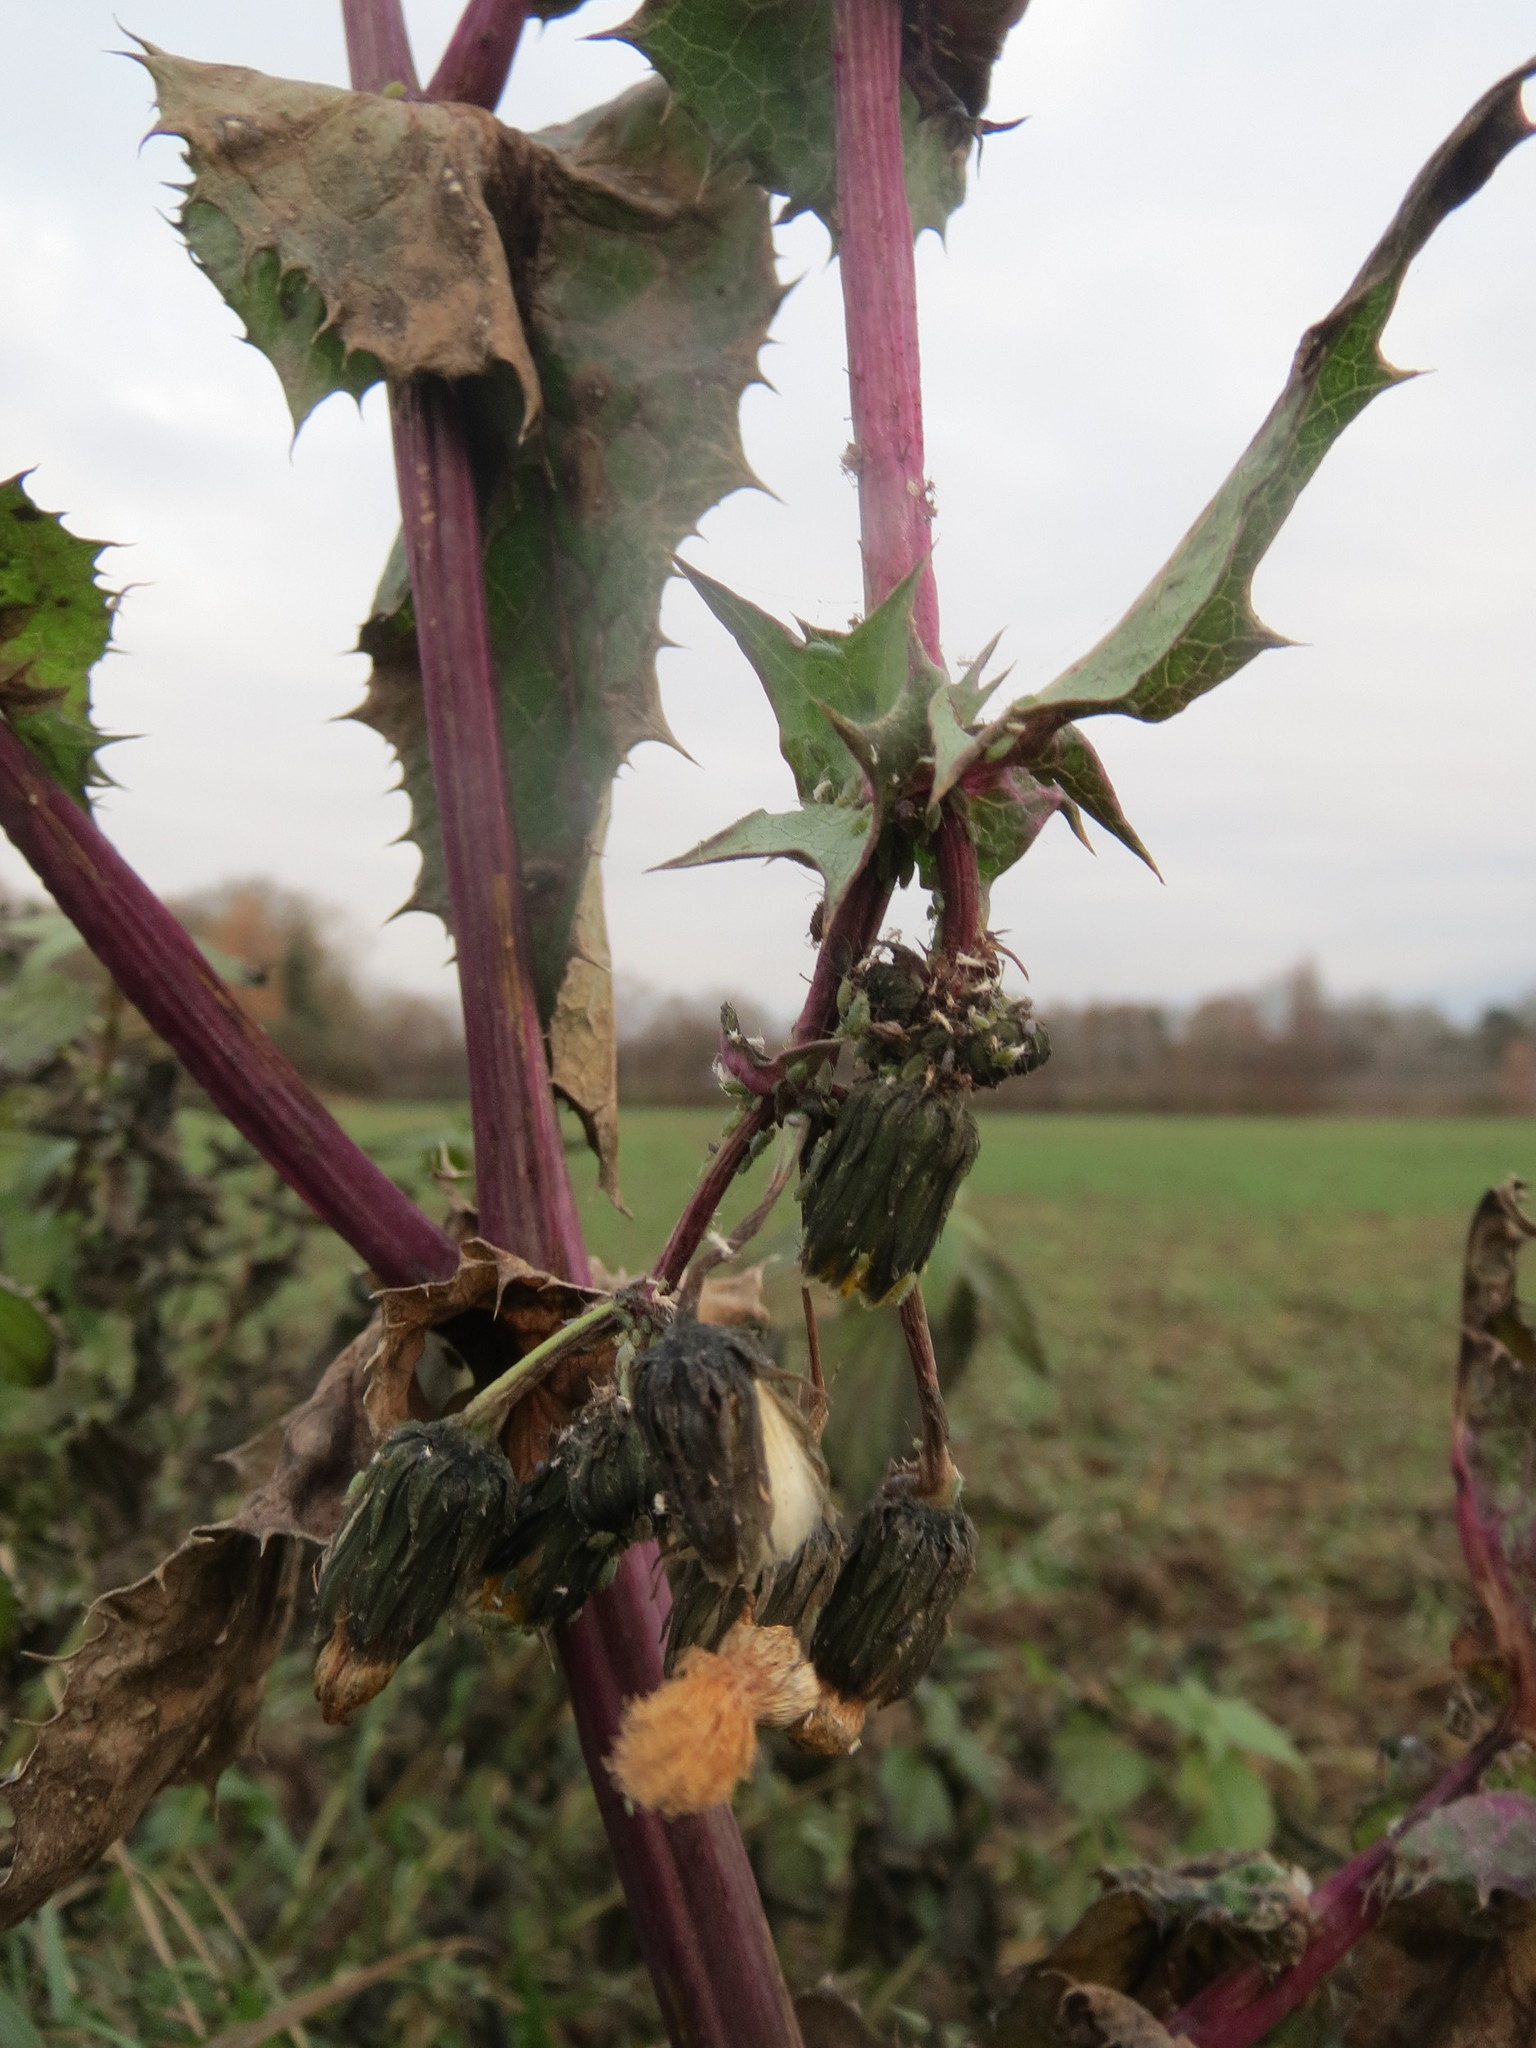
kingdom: Plantae
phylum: Tracheophyta
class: Magnoliopsida
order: Asterales
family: Asteraceae
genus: Sonchus
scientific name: Sonchus asper
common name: Prickly sow-thistle
